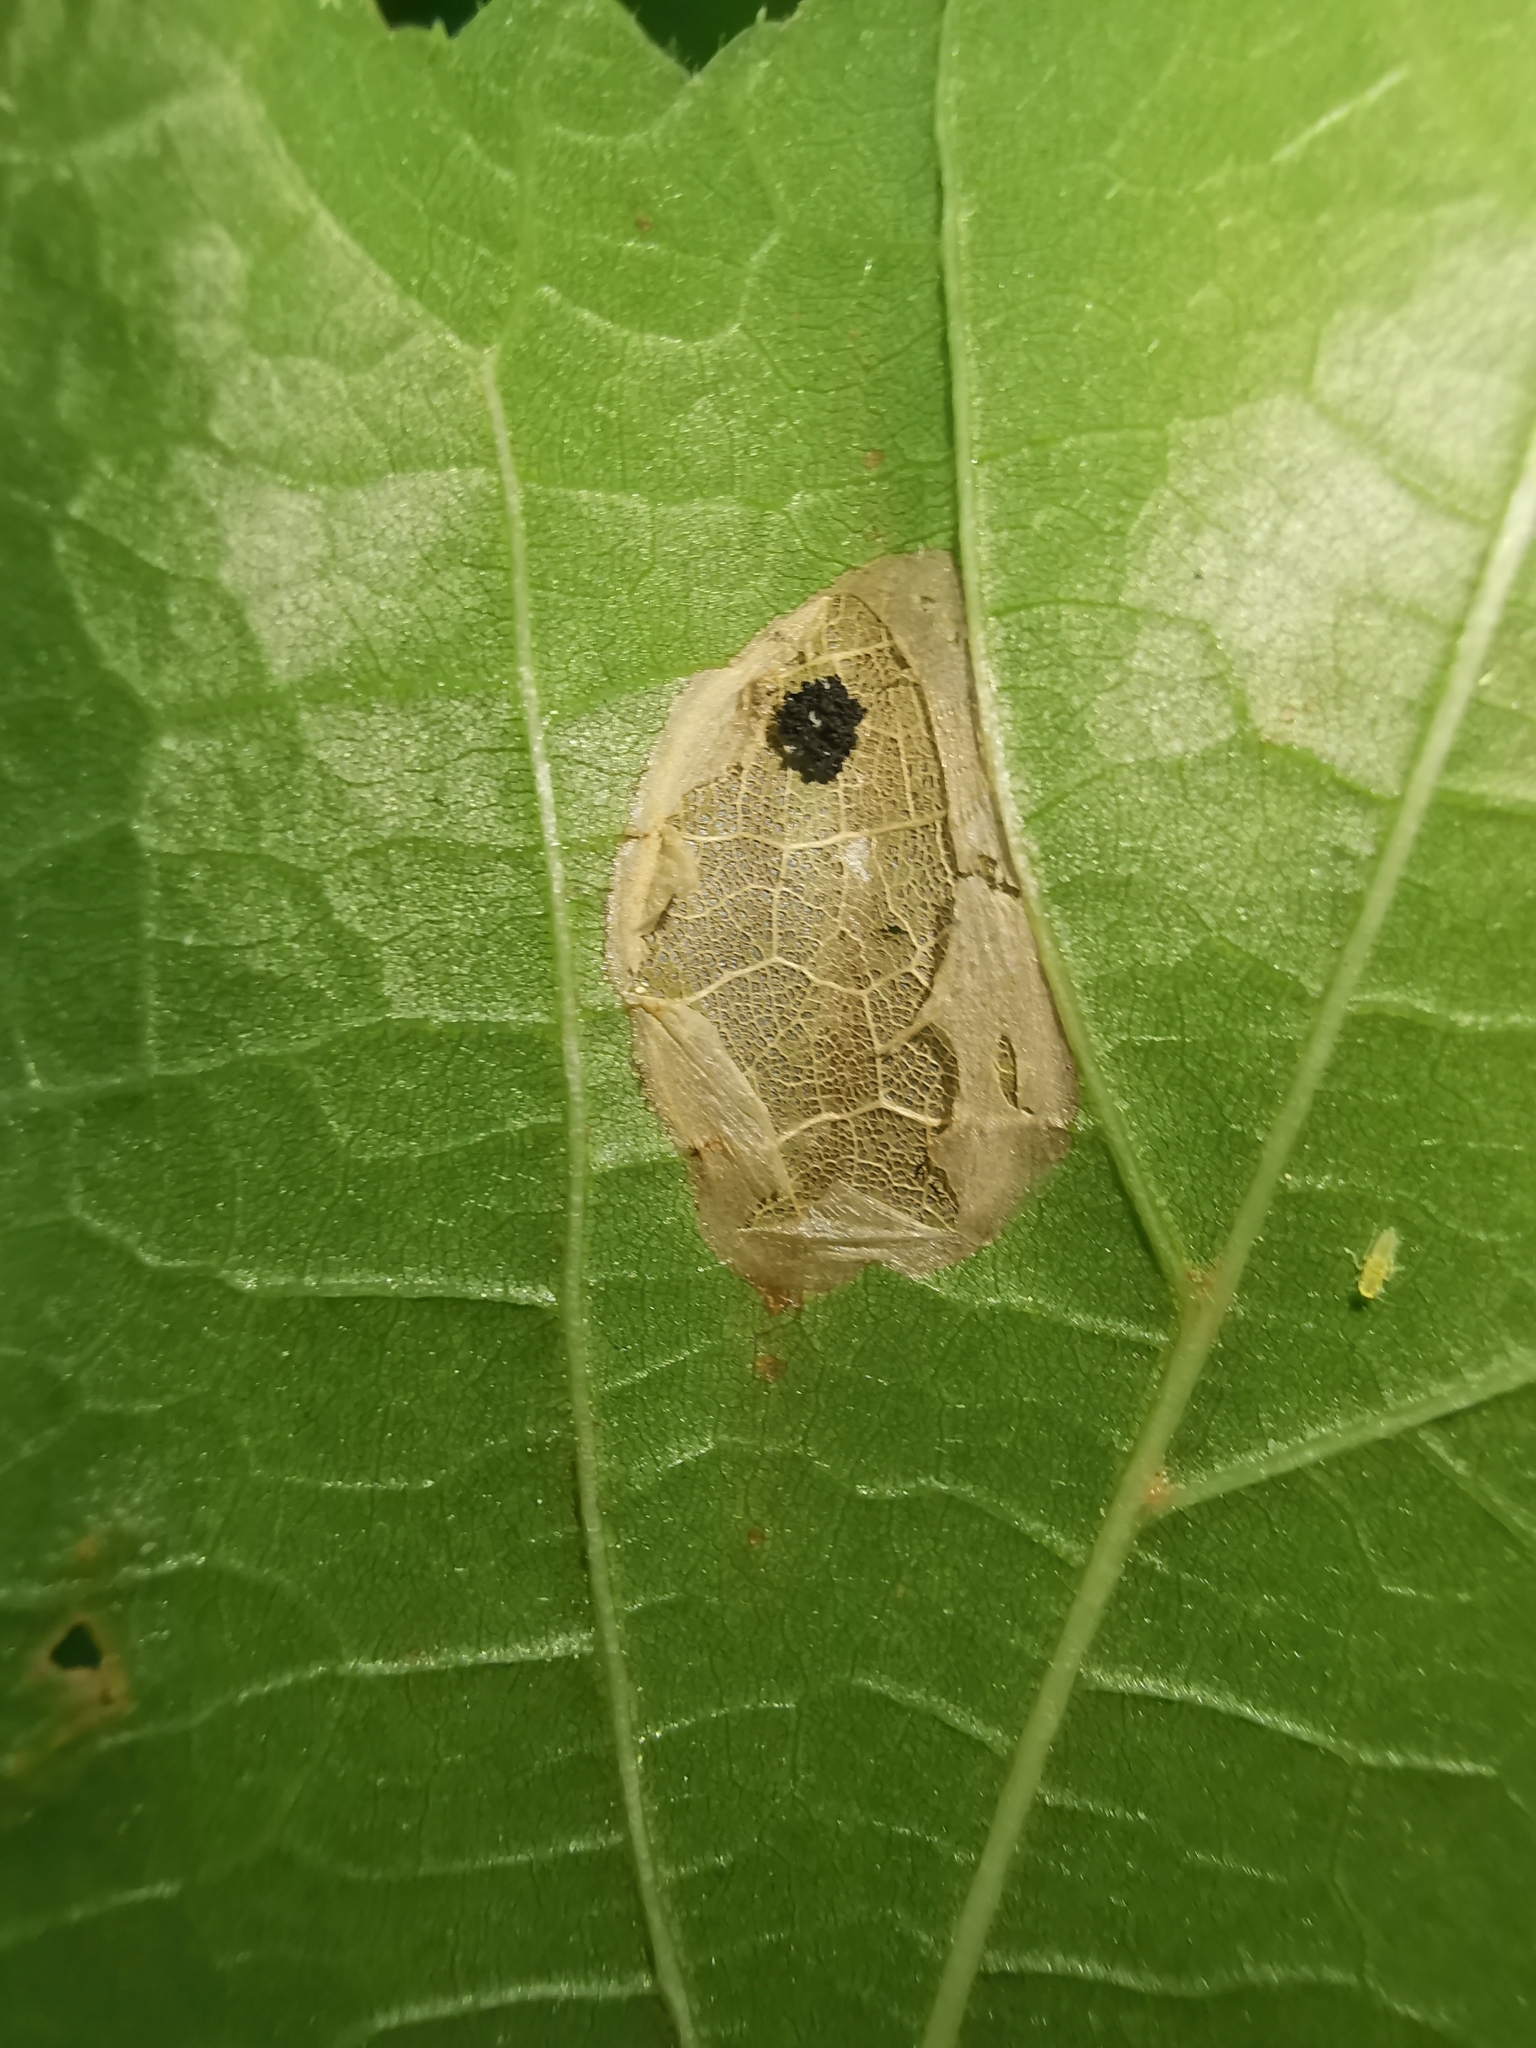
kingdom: Animalia
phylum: Arthropoda
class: Insecta
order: Lepidoptera
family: Gracillariidae
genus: Phyllonorycter
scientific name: Phyllonorycter issikii
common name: Linden midget
